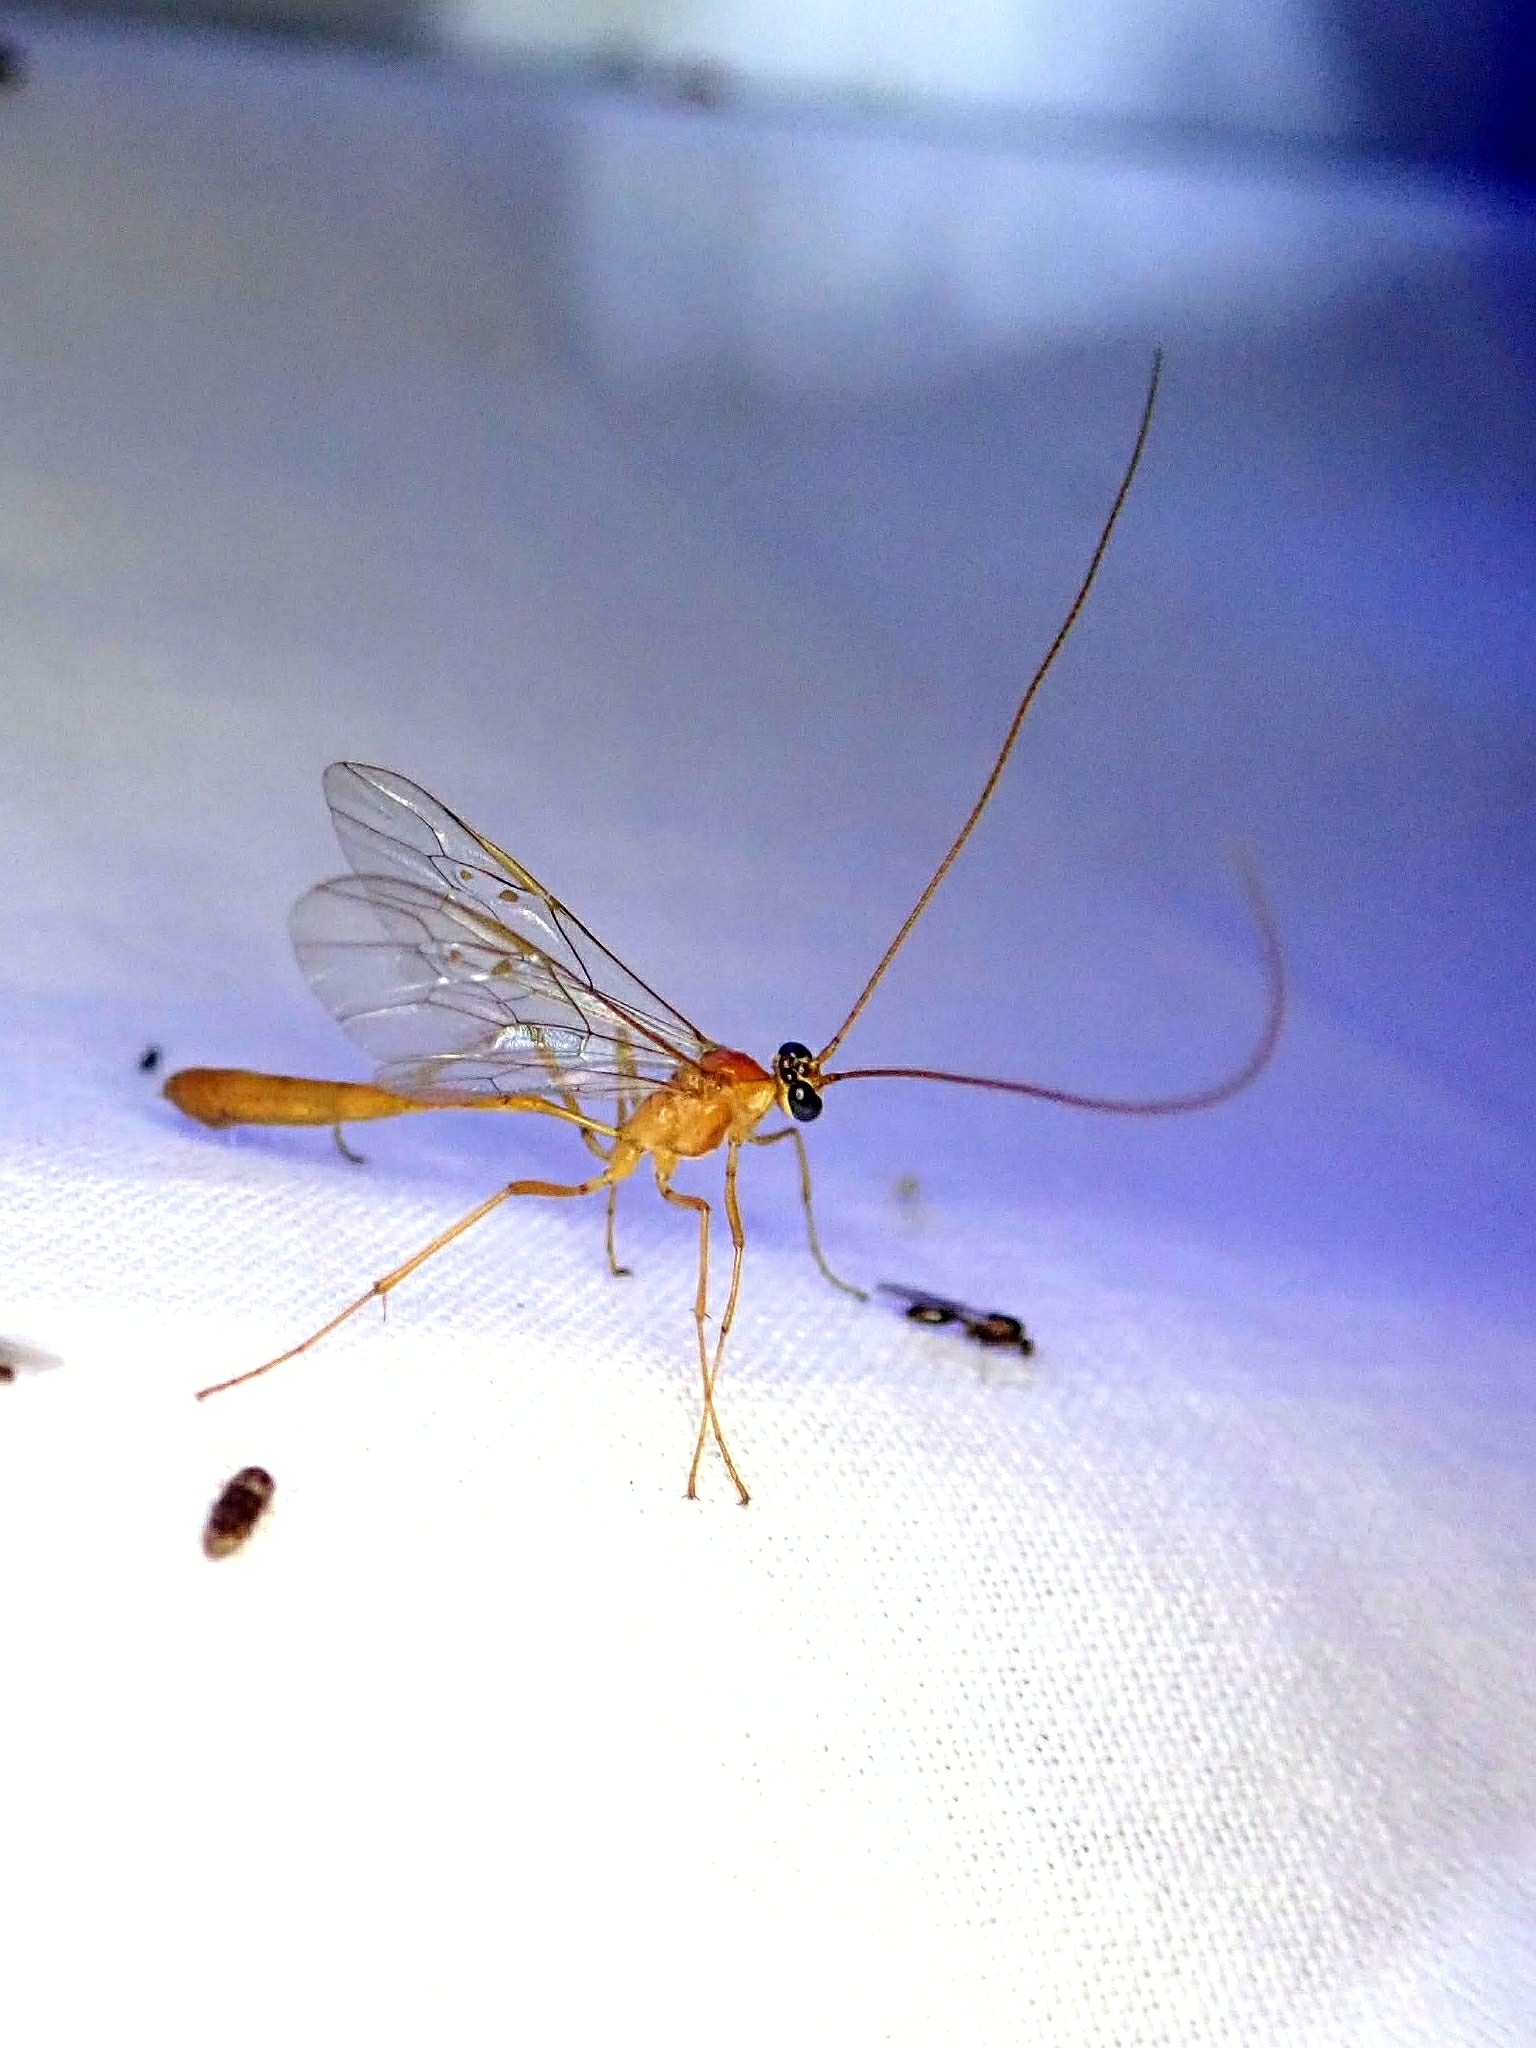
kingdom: Animalia
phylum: Arthropoda
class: Insecta
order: Hymenoptera
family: Ichneumonidae
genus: Enicospilus
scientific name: Enicospilus purgatus
